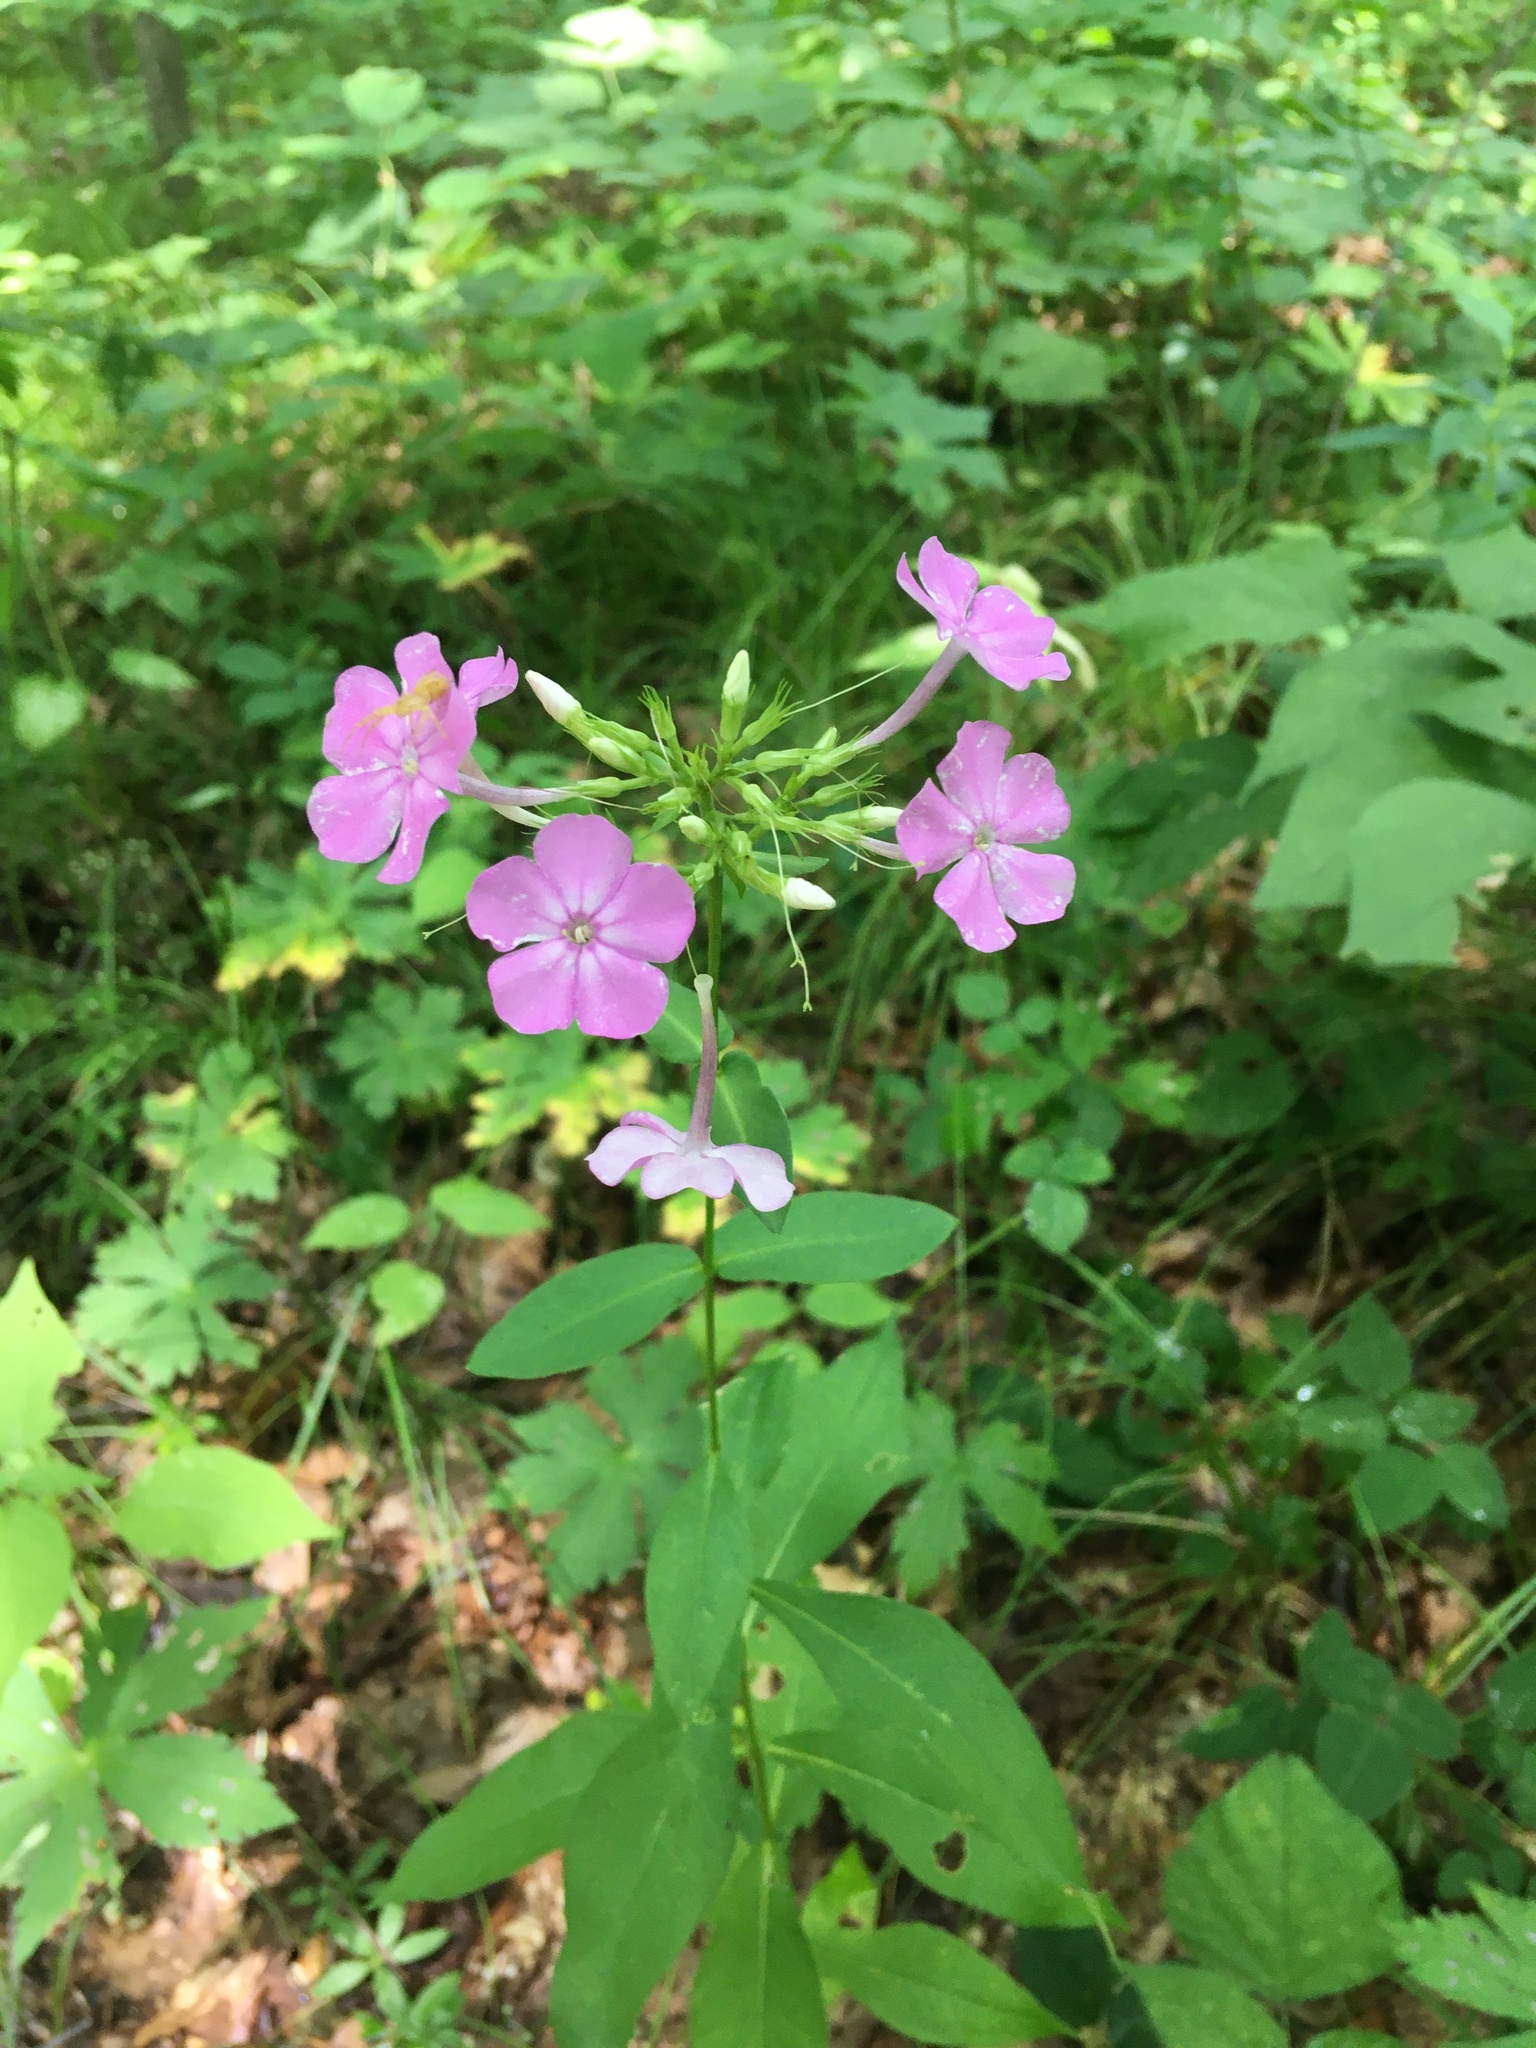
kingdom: Plantae
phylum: Tracheophyta
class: Magnoliopsida
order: Ericales
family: Polemoniaceae
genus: Phlox
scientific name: Phlox paniculata
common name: Fall phlox
